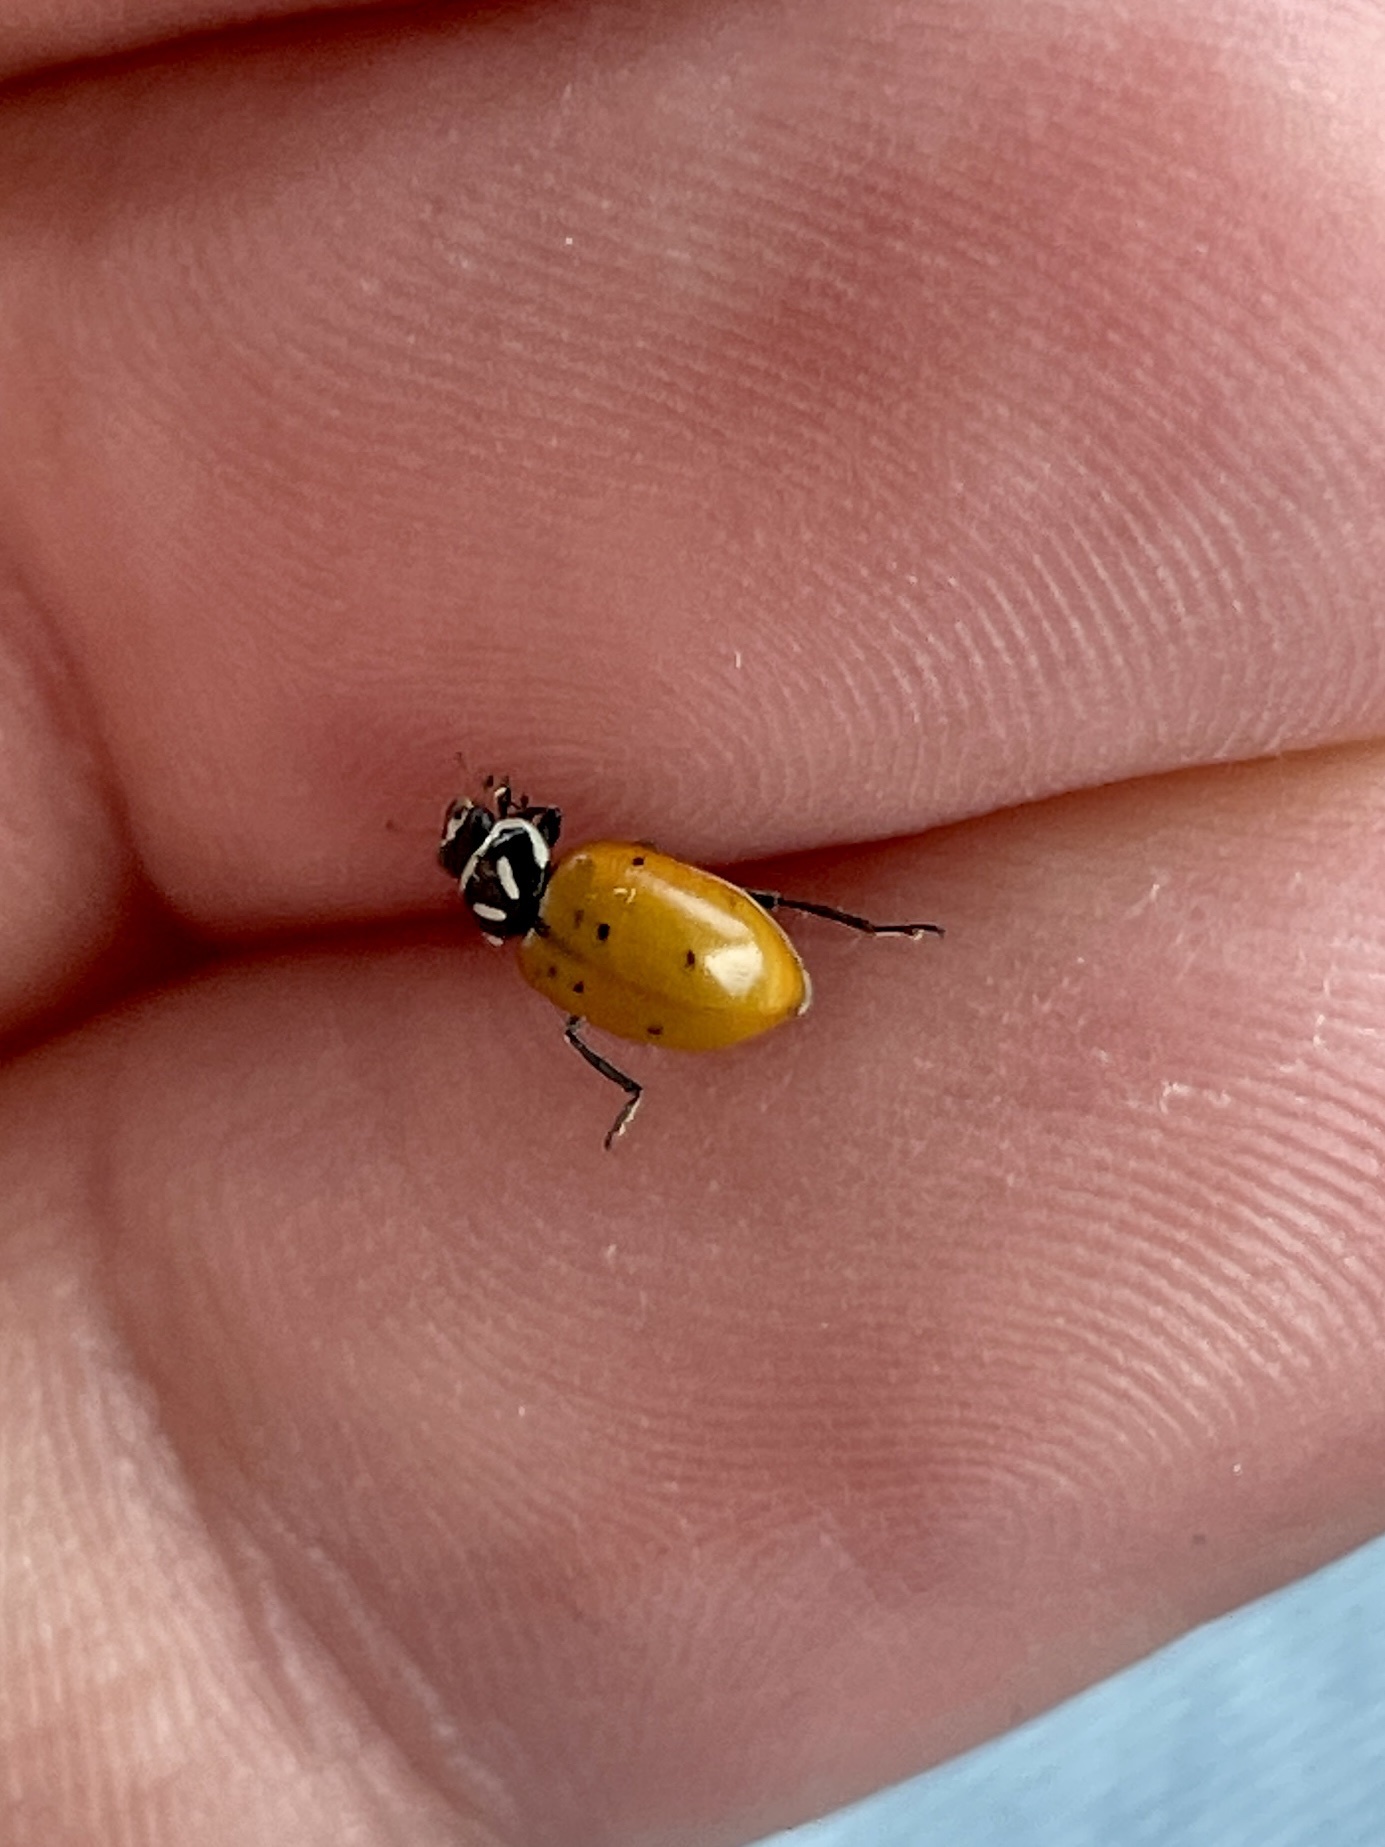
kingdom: Animalia
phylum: Arthropoda
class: Insecta
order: Coleoptera
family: Coccinellidae
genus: Hippodamia
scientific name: Hippodamia convergens
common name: Convergent lady beetle
